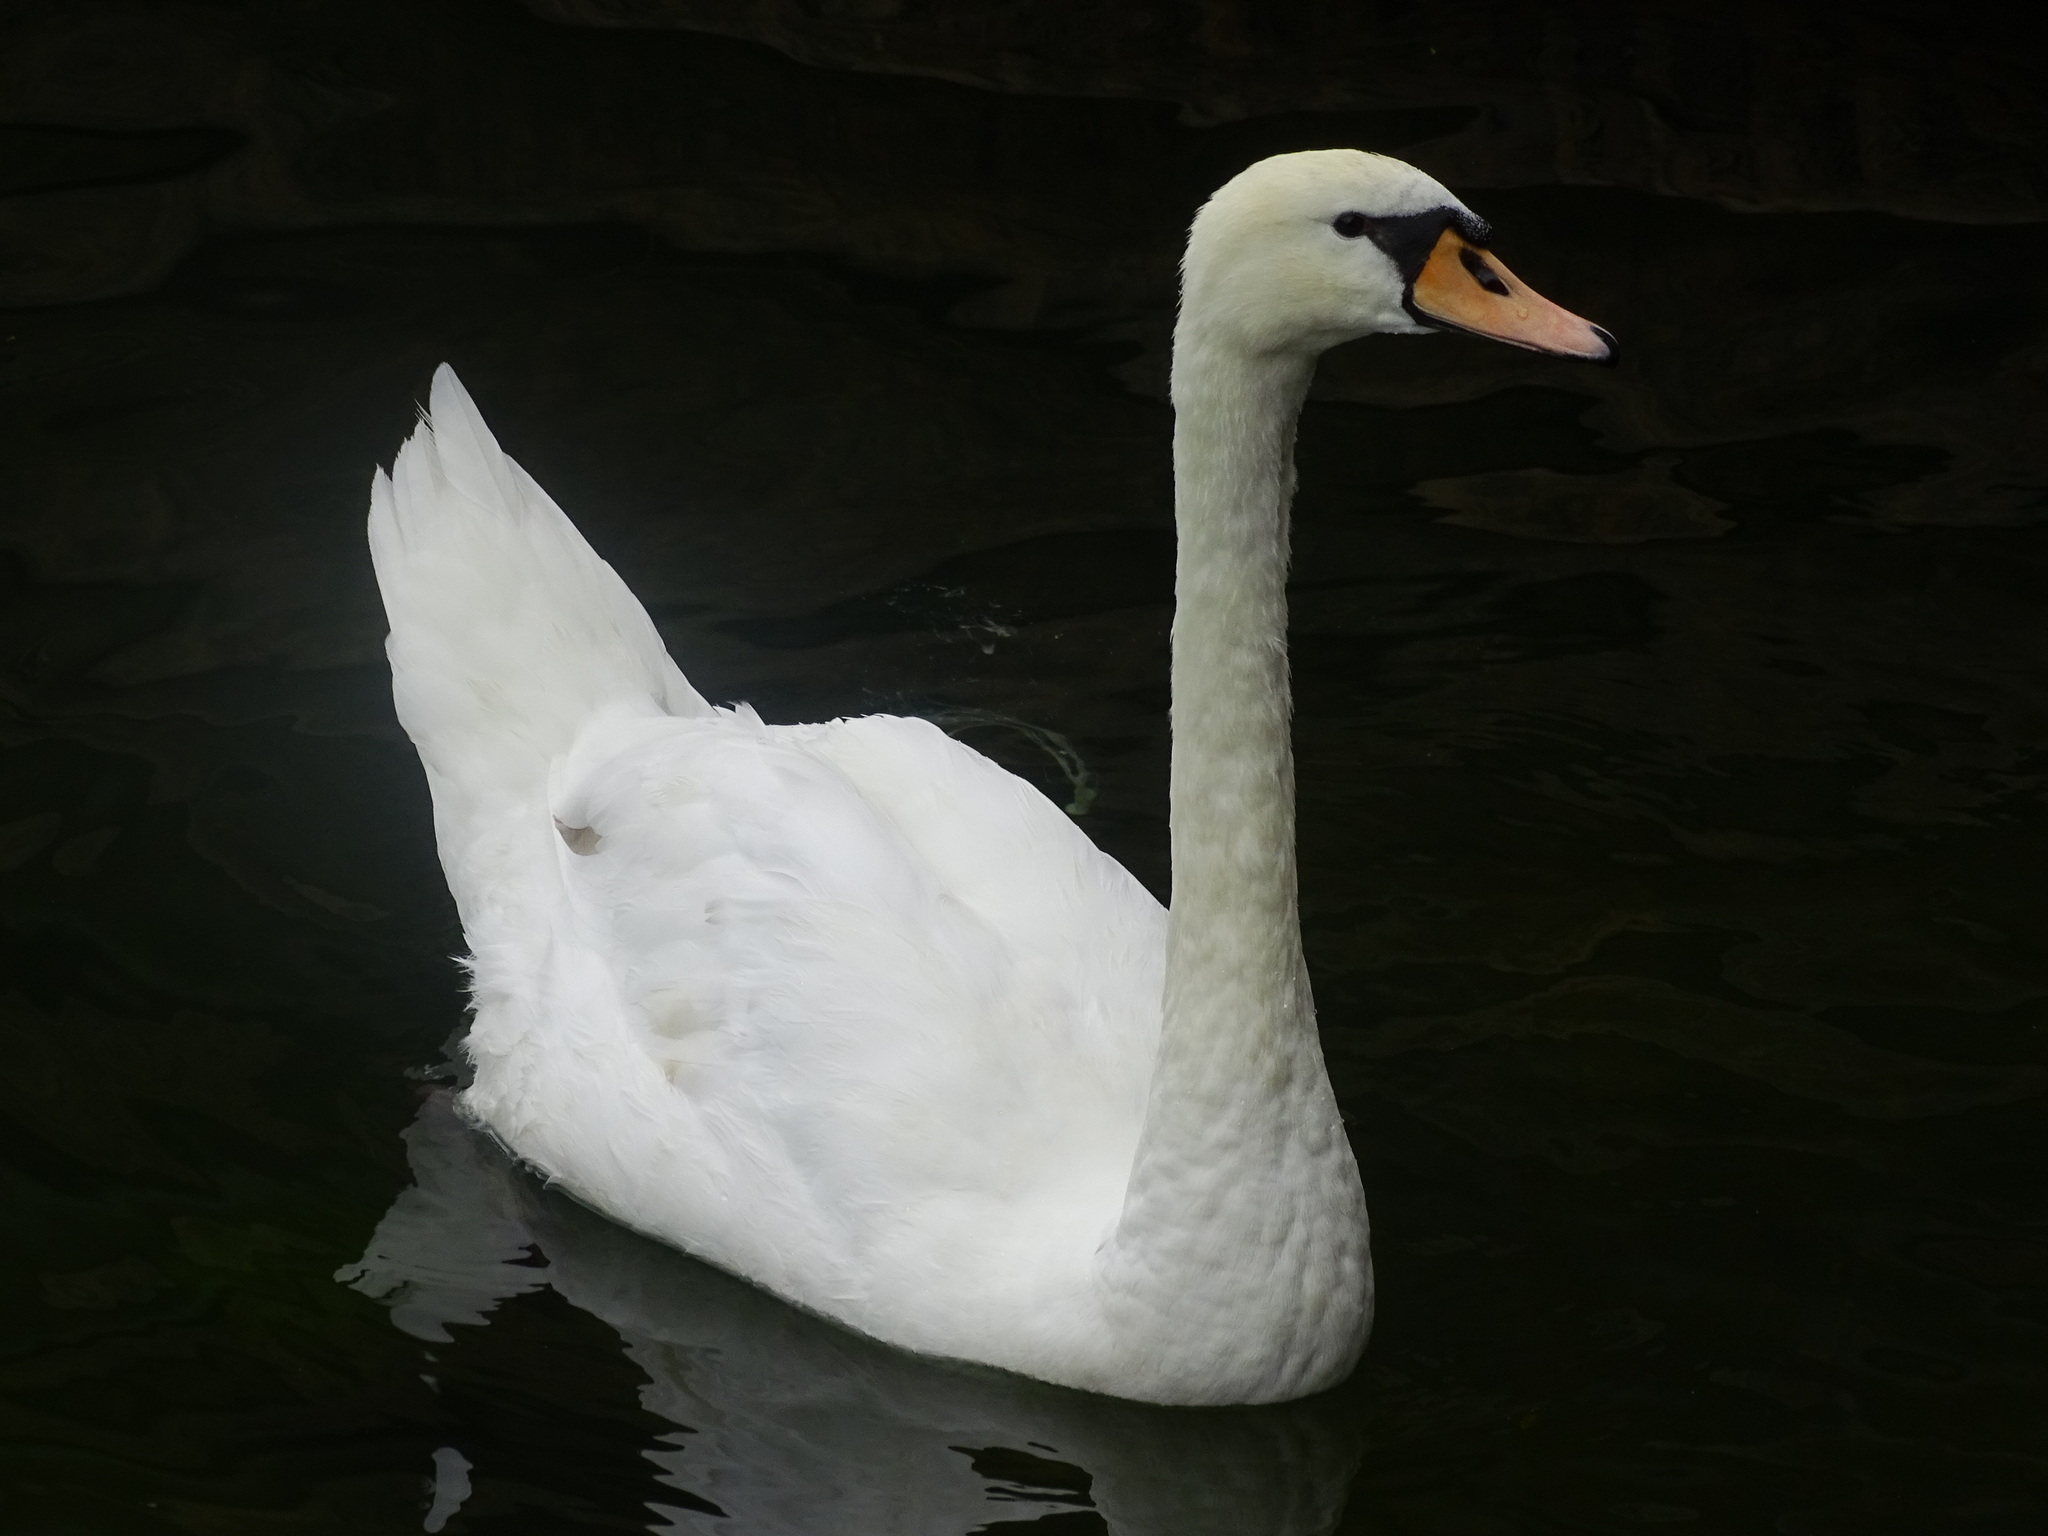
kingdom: Animalia
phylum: Chordata
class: Aves
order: Anseriformes
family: Anatidae
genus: Cygnus
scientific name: Cygnus olor
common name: Mute swan
